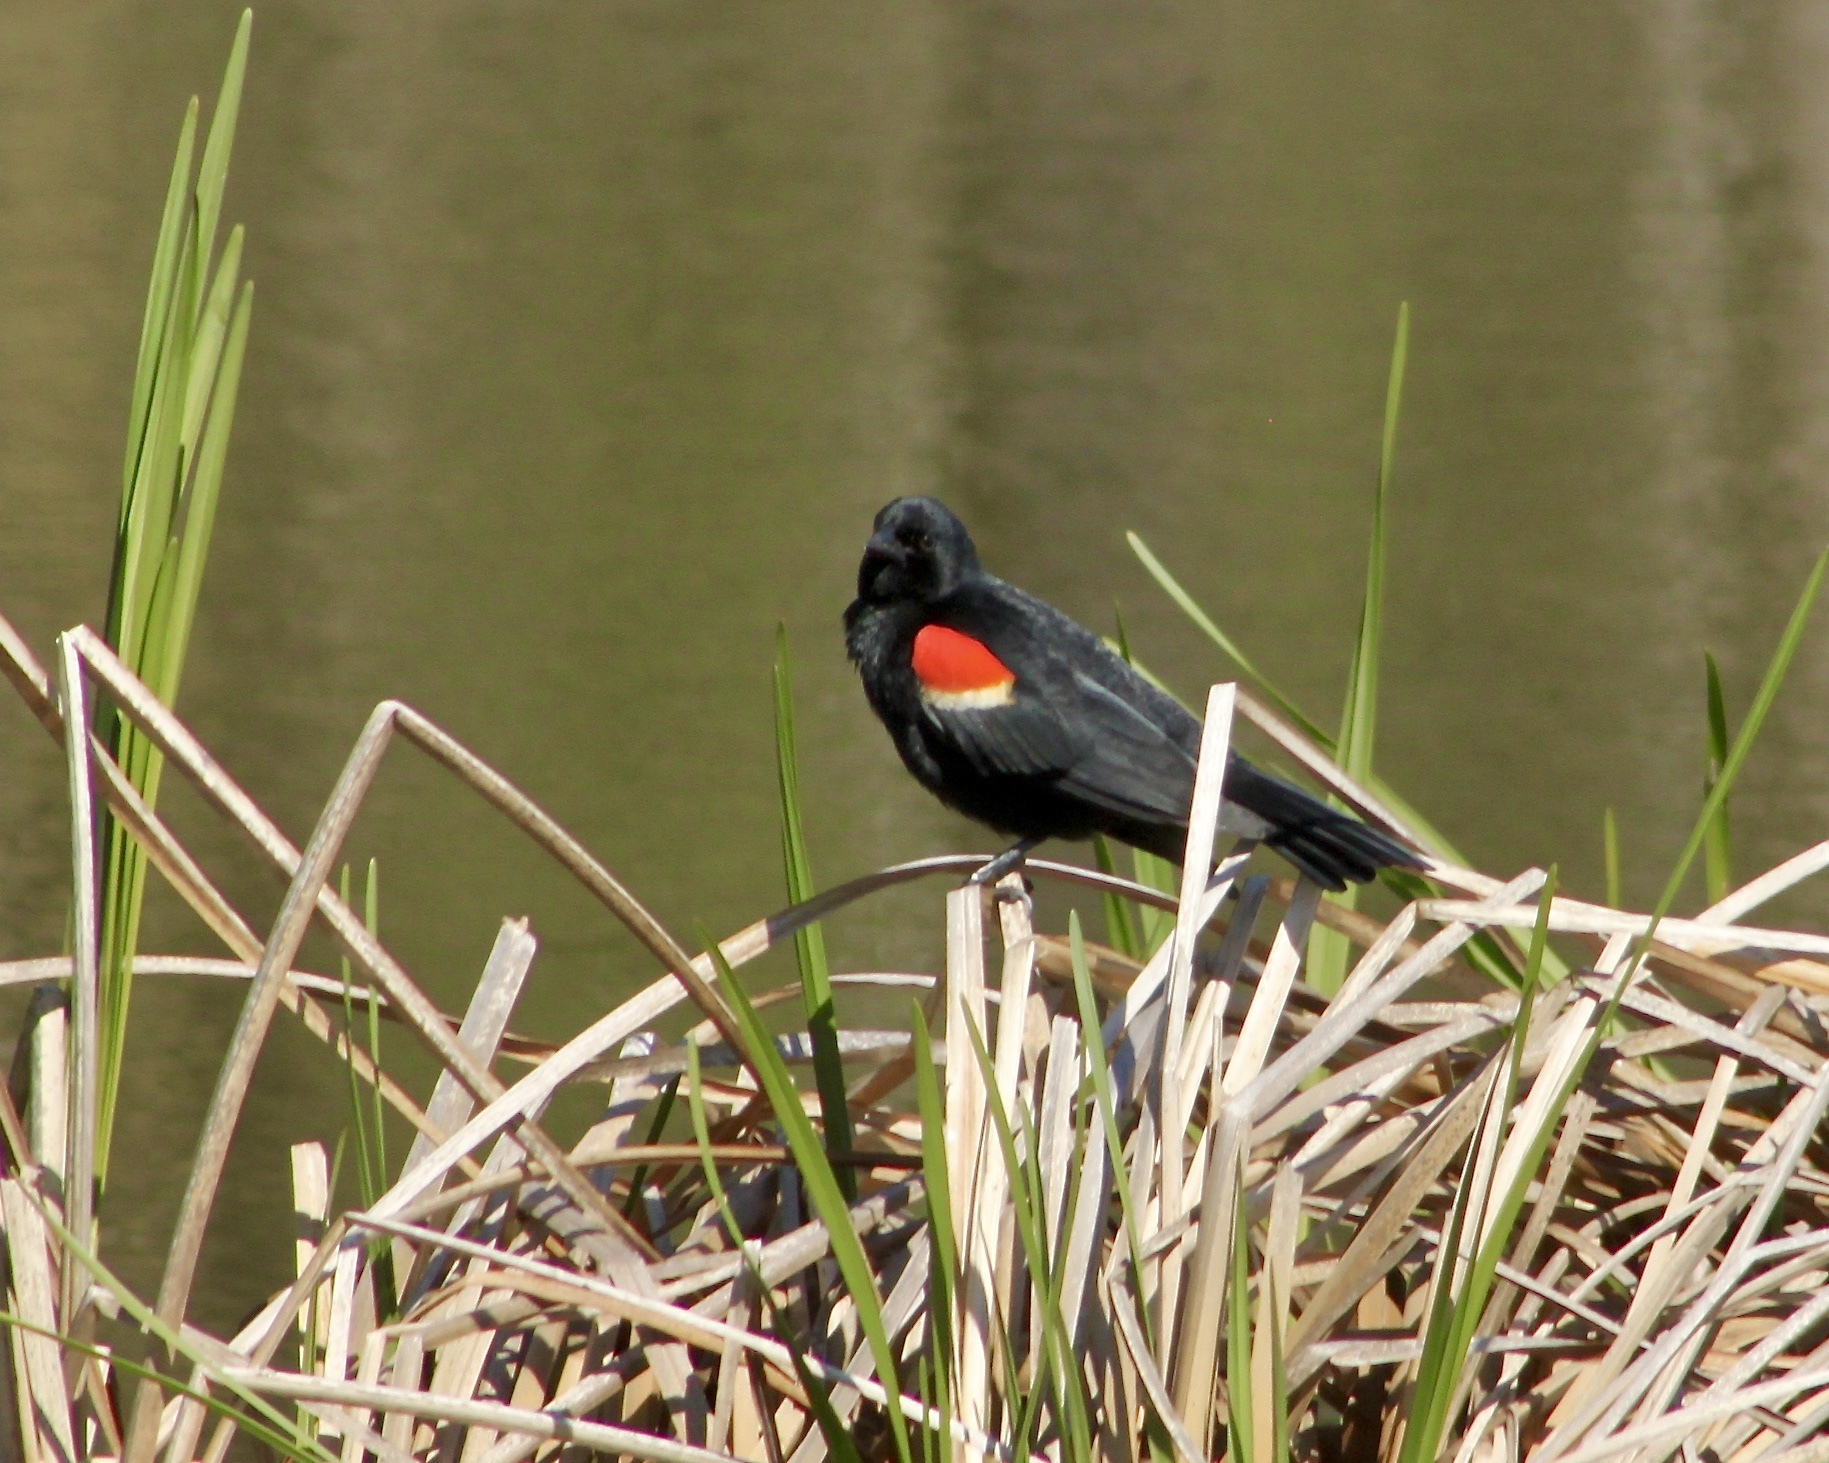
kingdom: Animalia
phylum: Chordata
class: Aves
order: Passeriformes
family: Icteridae
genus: Agelaius
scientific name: Agelaius phoeniceus
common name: Red-winged blackbird
